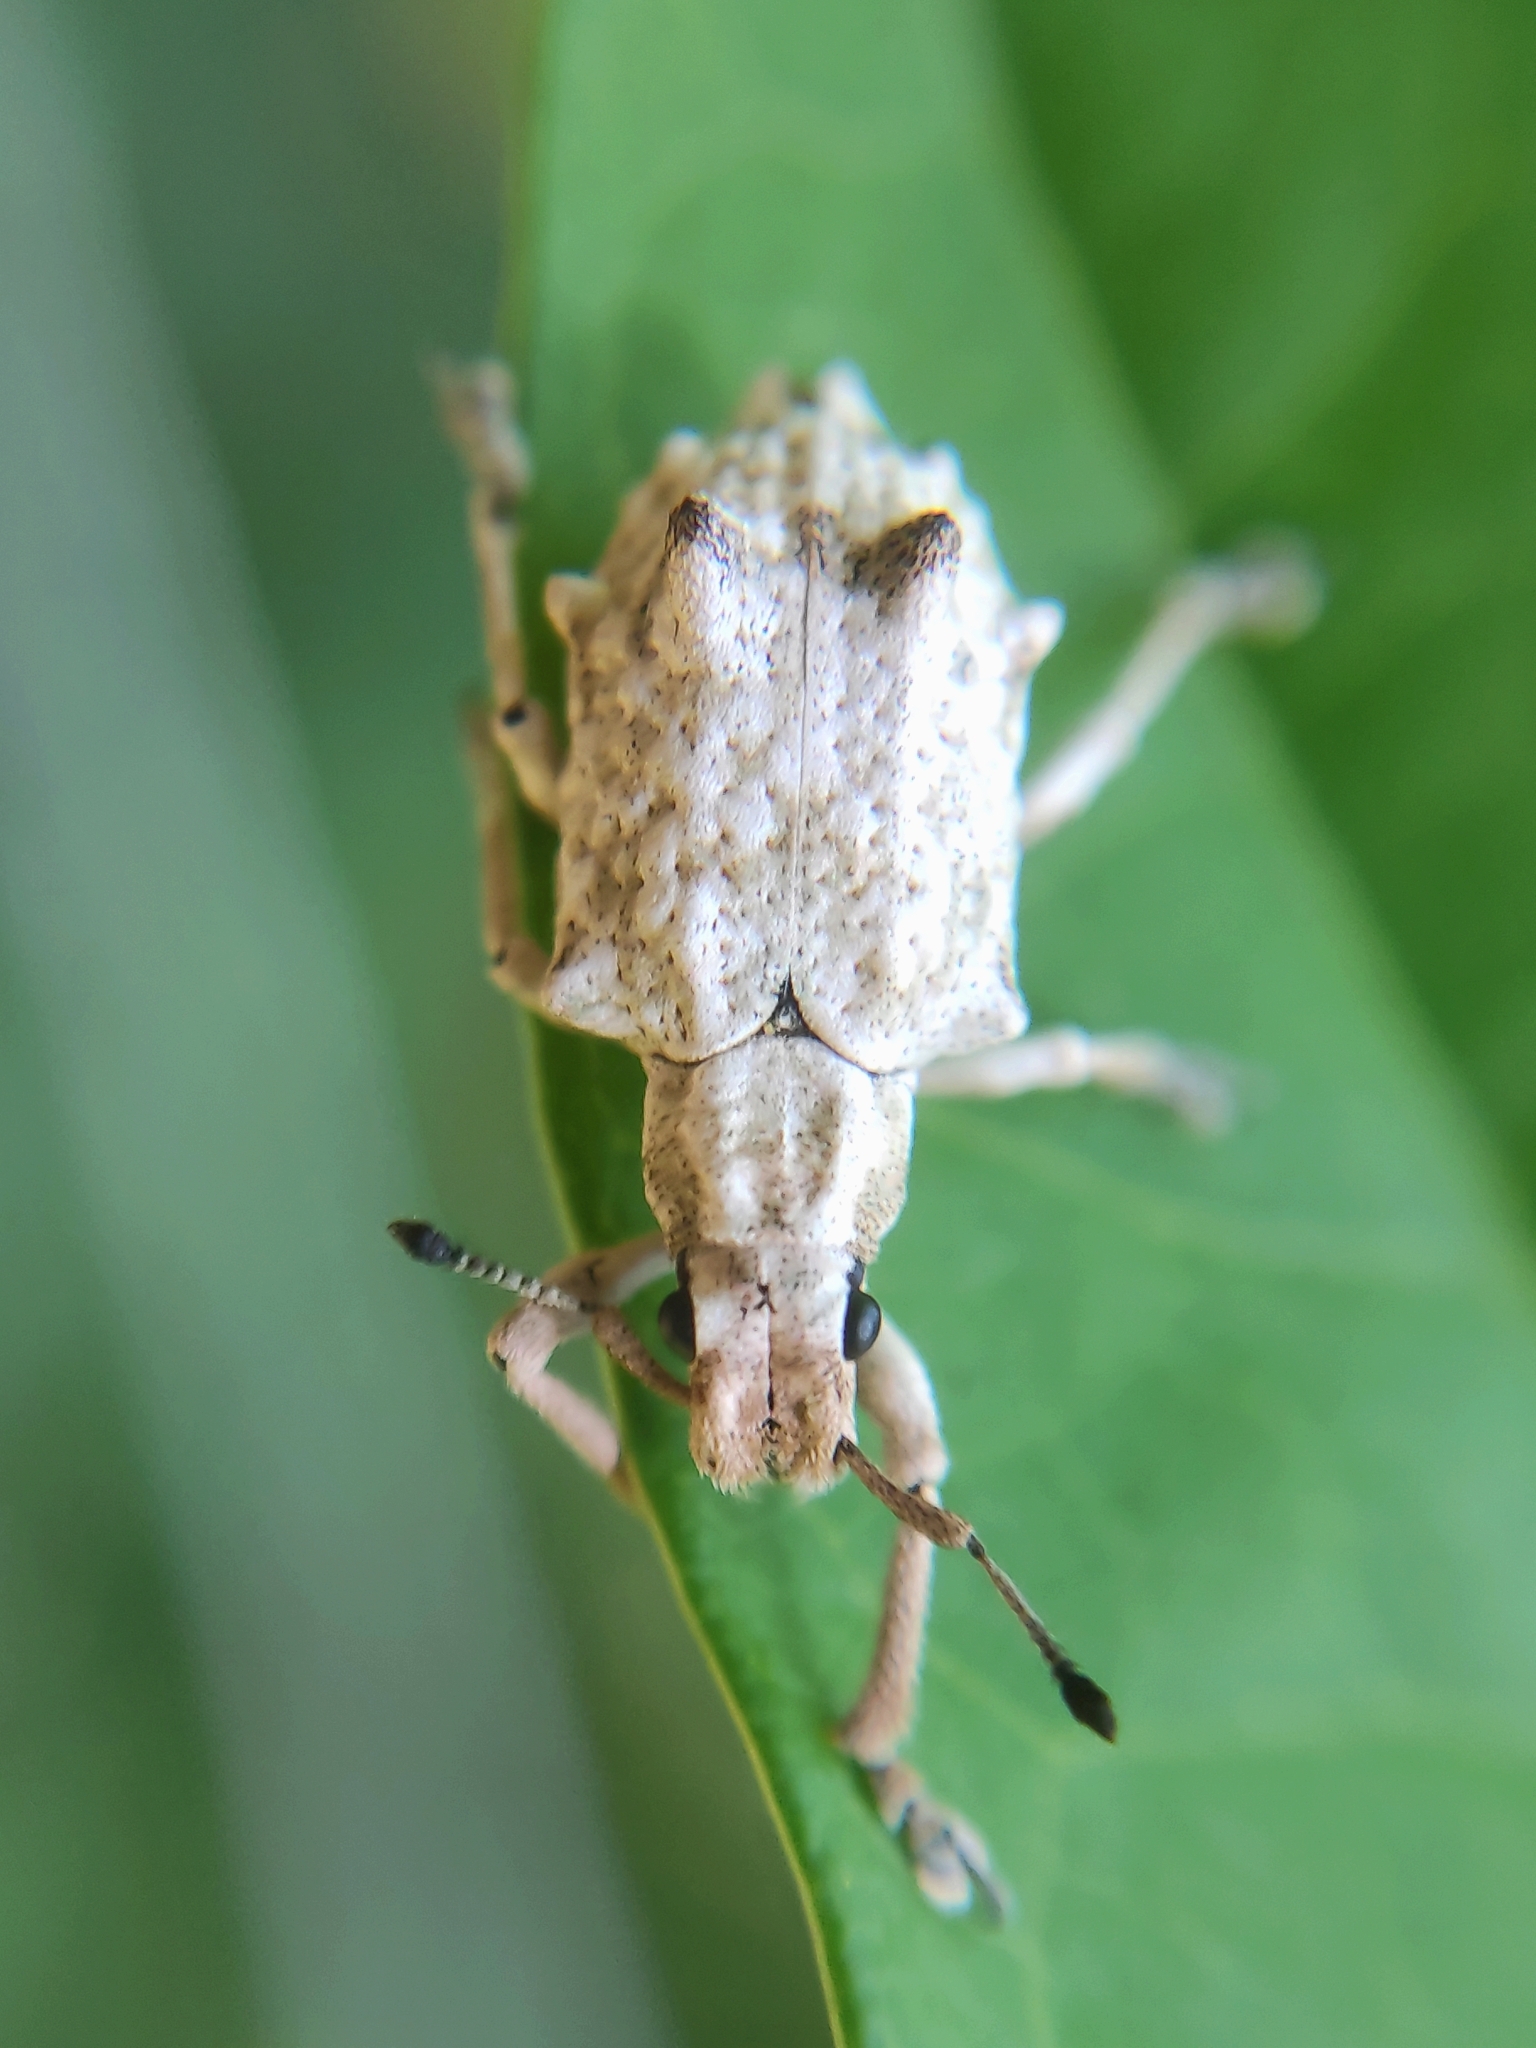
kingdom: Animalia
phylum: Arthropoda
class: Insecta
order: Coleoptera
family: Curculionidae
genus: Platyomus
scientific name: Platyomus piscatorius
